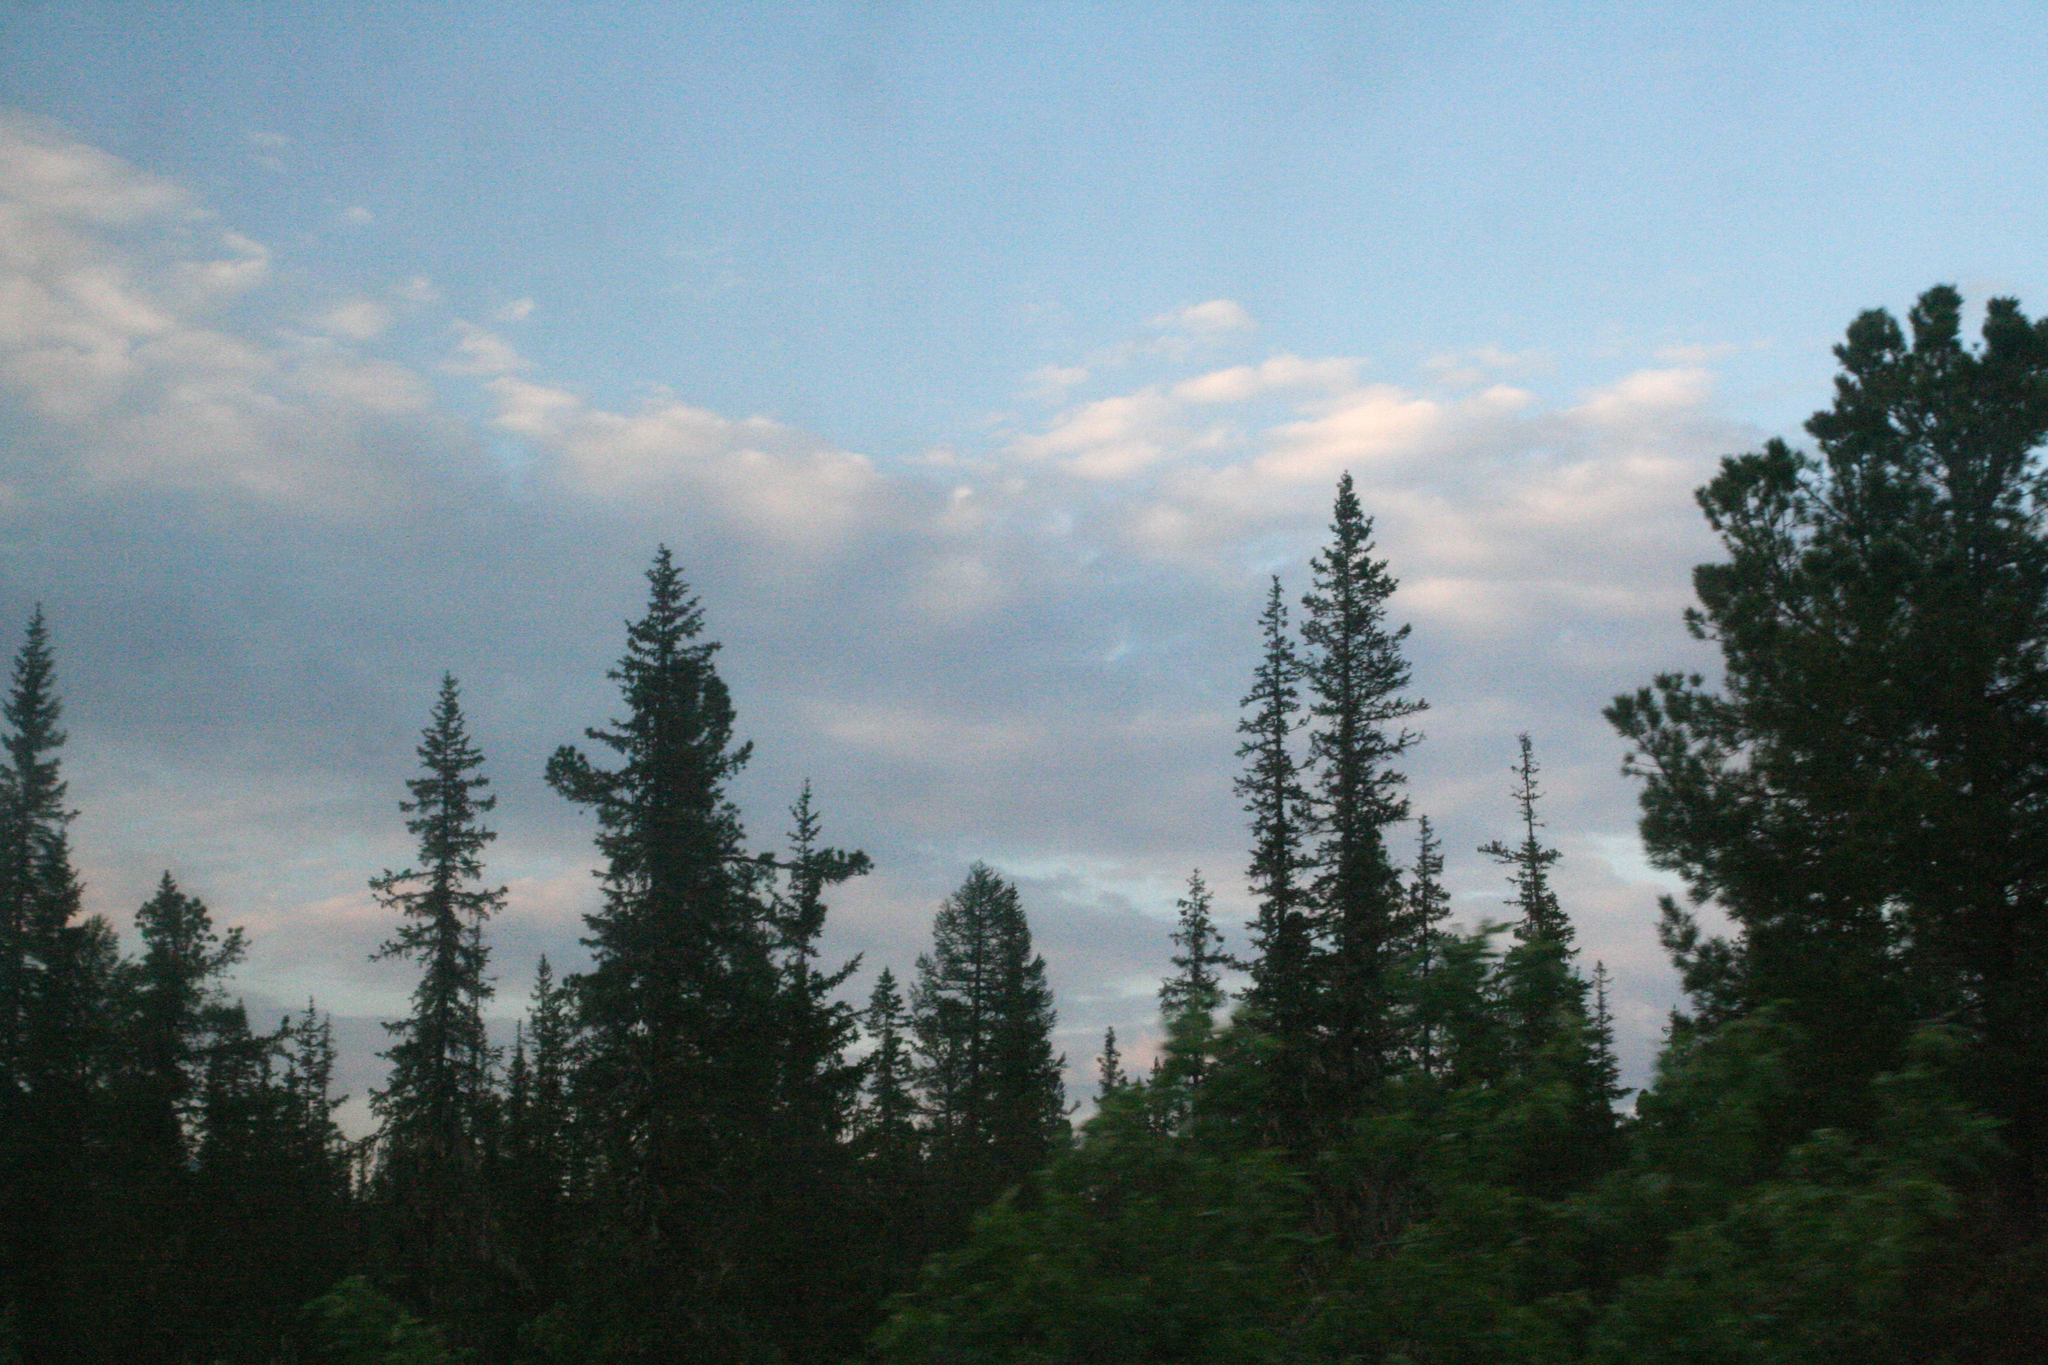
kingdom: Plantae
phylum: Tracheophyta
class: Pinopsida
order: Pinales
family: Pinaceae
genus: Pinus
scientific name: Pinus sibirica
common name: Siberian pine
